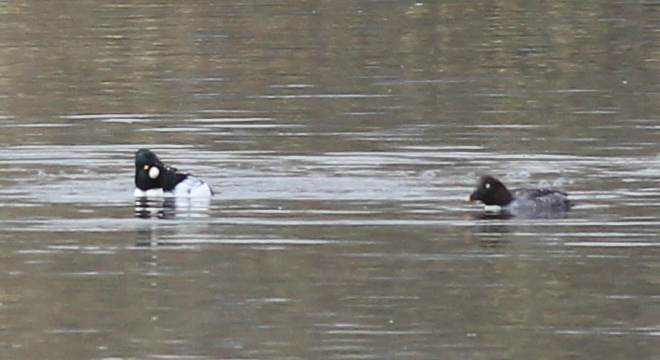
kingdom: Animalia
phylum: Chordata
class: Aves
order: Anseriformes
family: Anatidae
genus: Bucephala
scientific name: Bucephala clangula
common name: Common goldeneye
